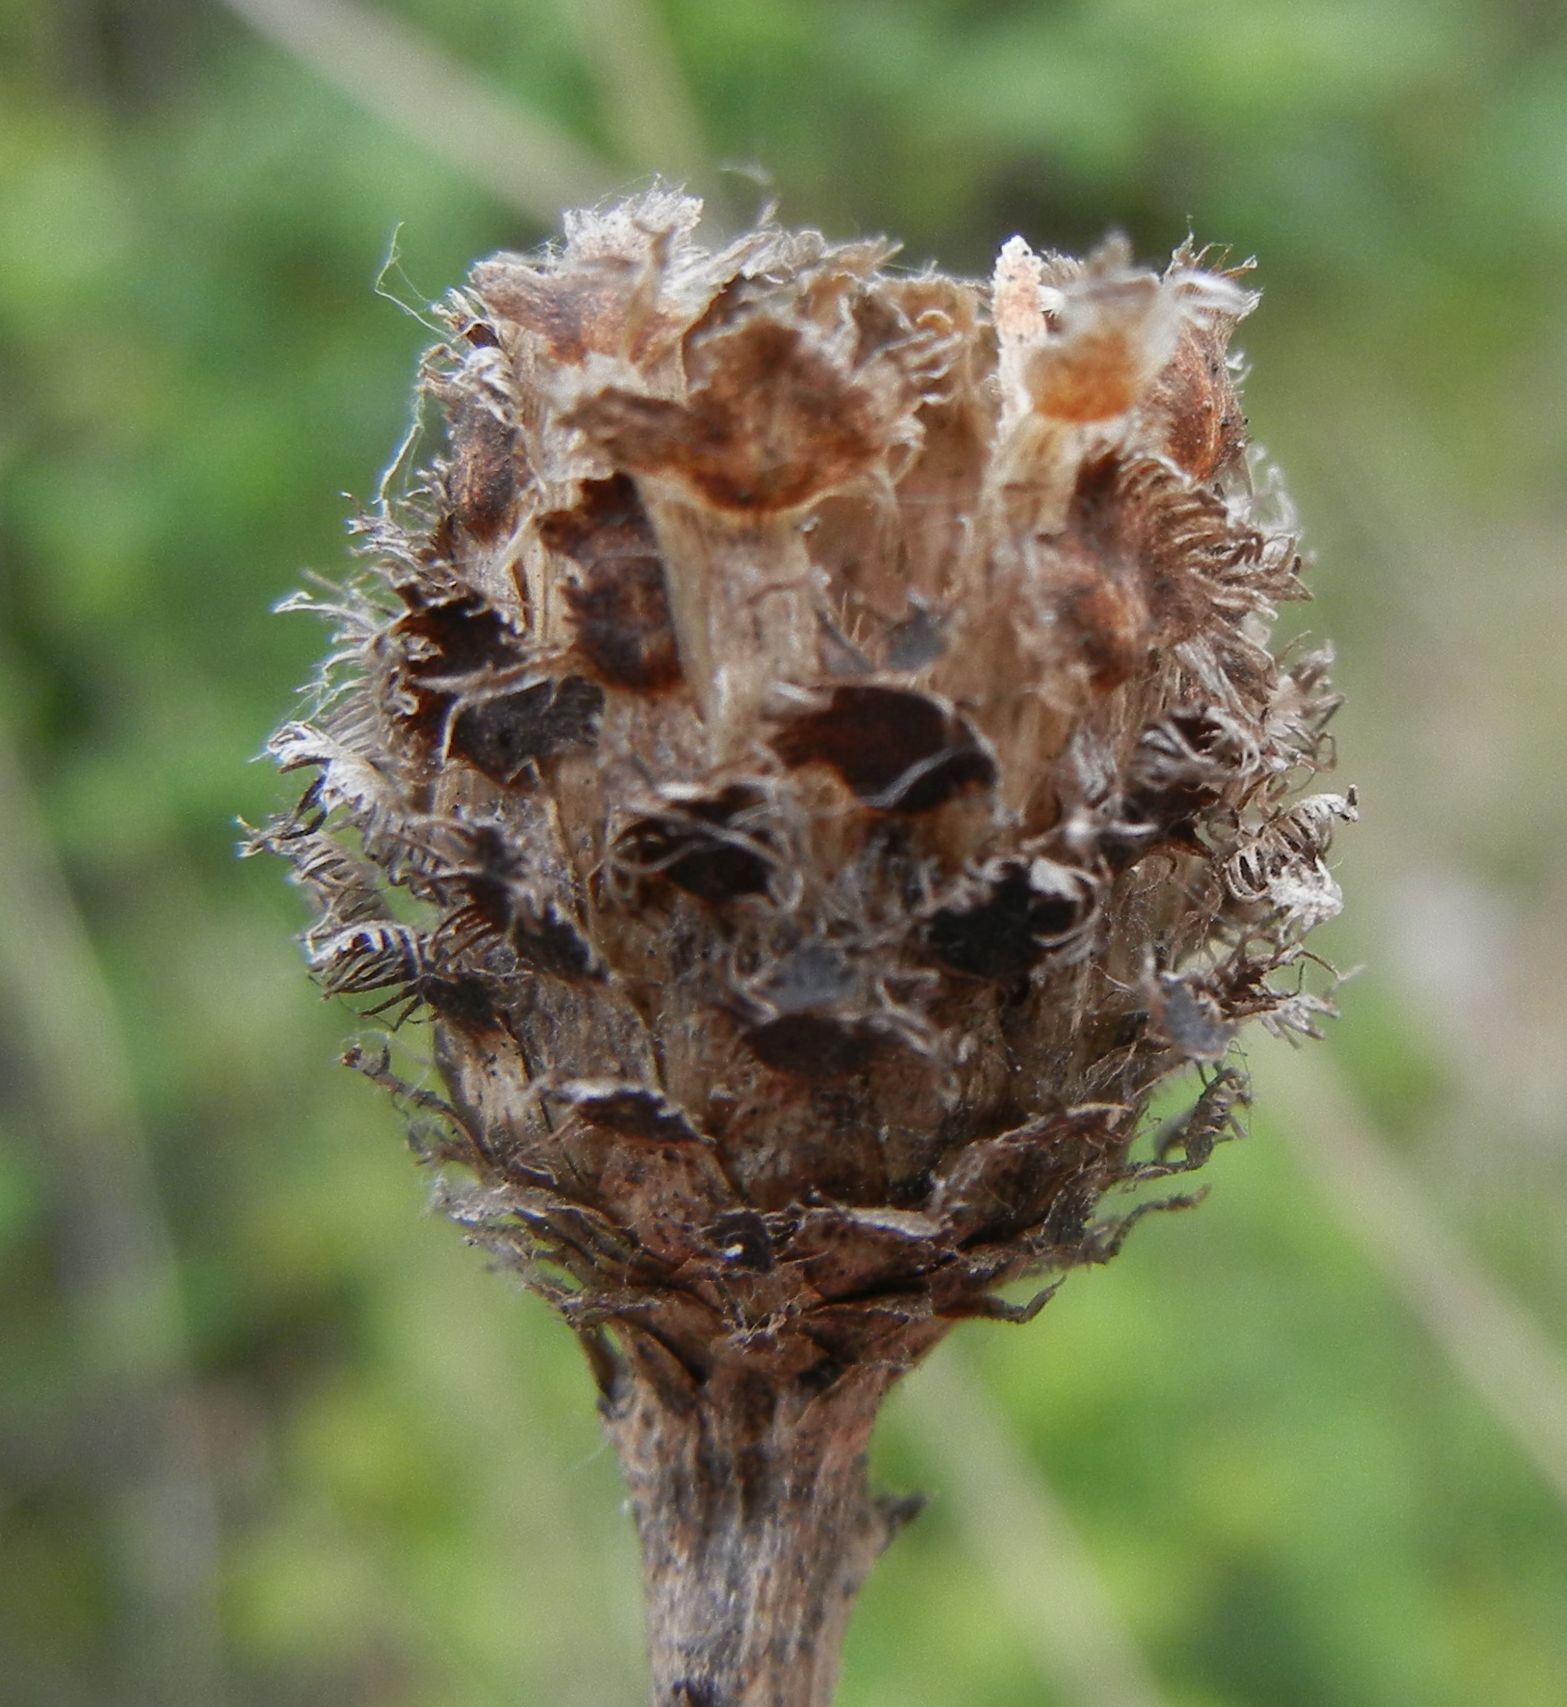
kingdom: Plantae
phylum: Tracheophyta
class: Magnoliopsida
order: Asterales
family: Asteraceae
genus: Centaurea
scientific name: Centaurea nigra
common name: Lesser knapweed
